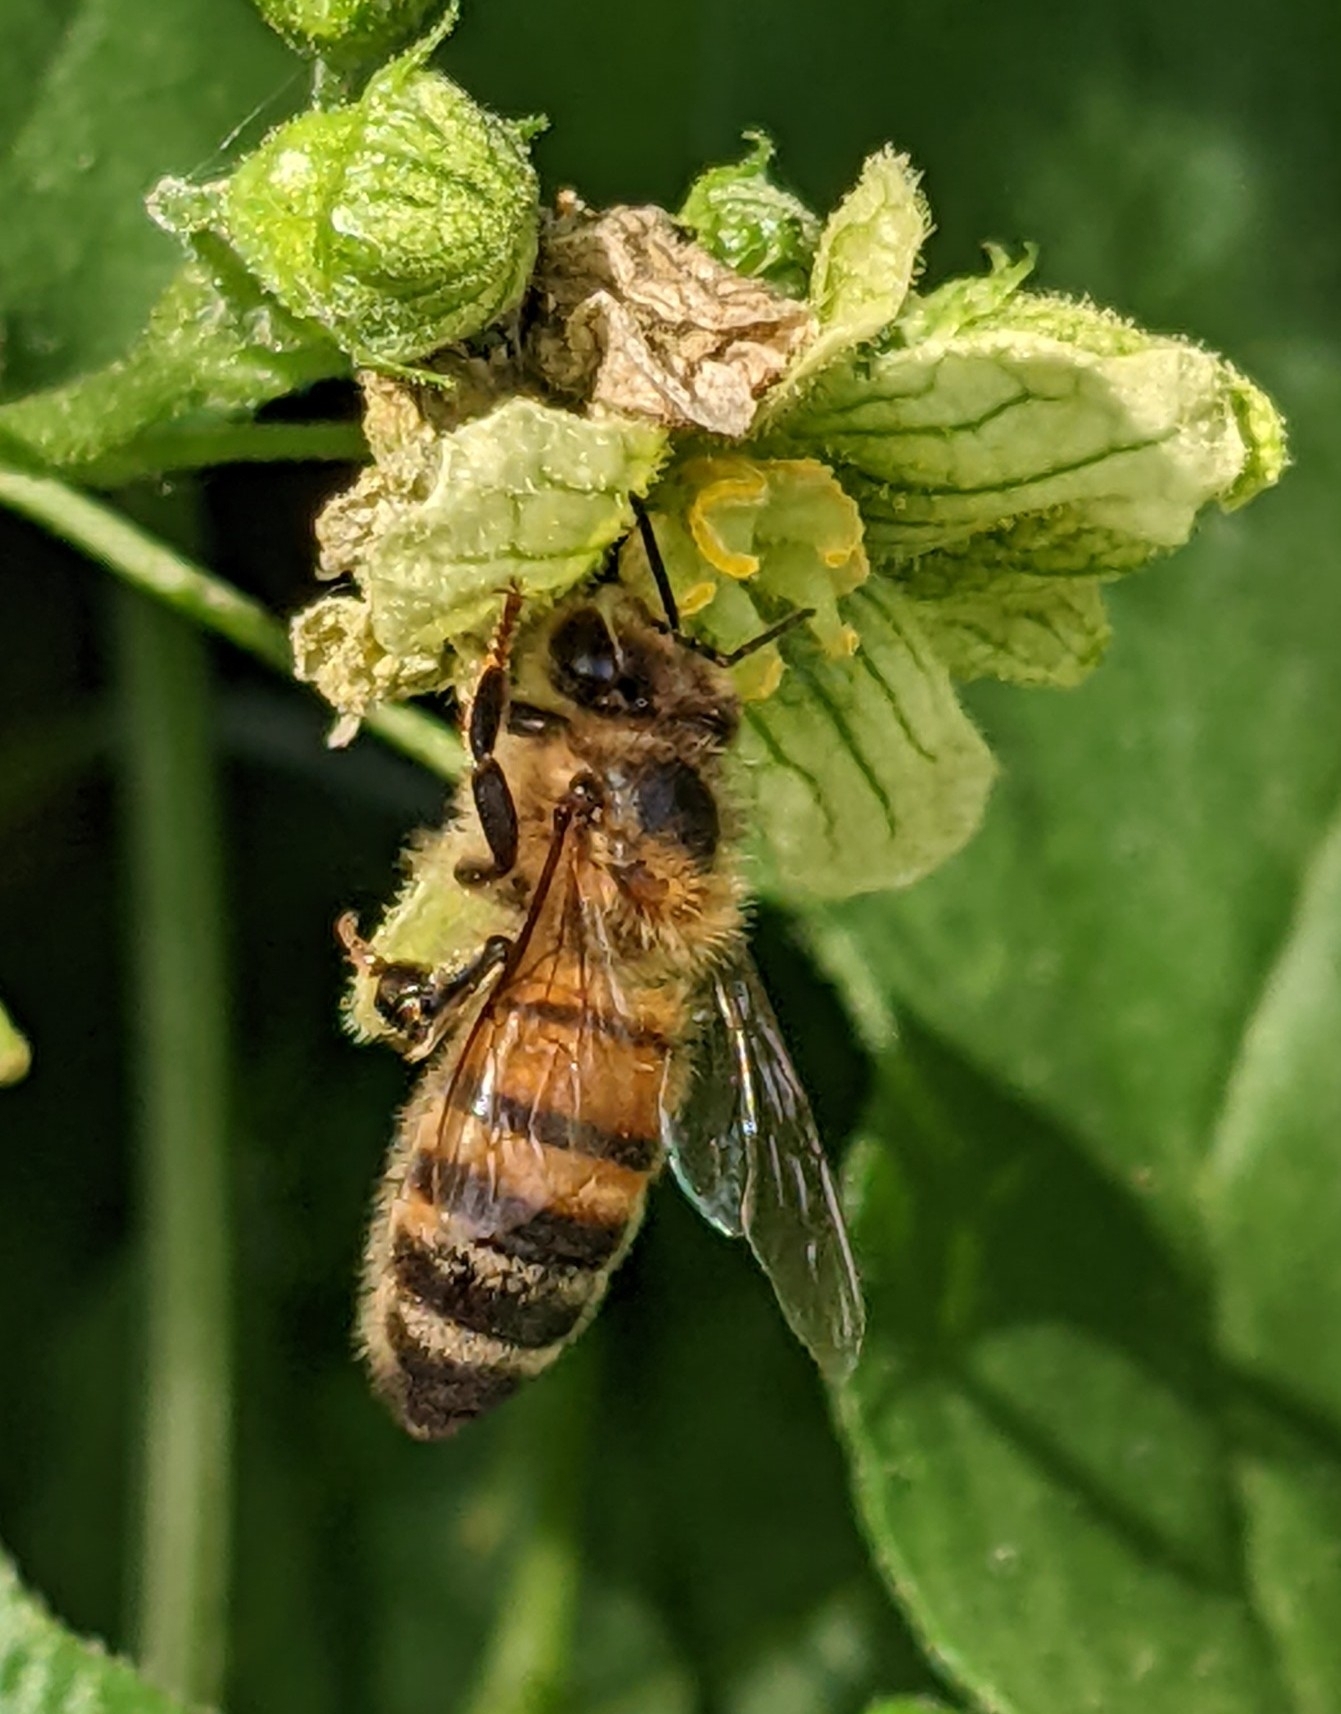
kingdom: Animalia
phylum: Arthropoda
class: Insecta
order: Hymenoptera
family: Apidae
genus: Apis
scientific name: Apis mellifera
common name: Honey bee
